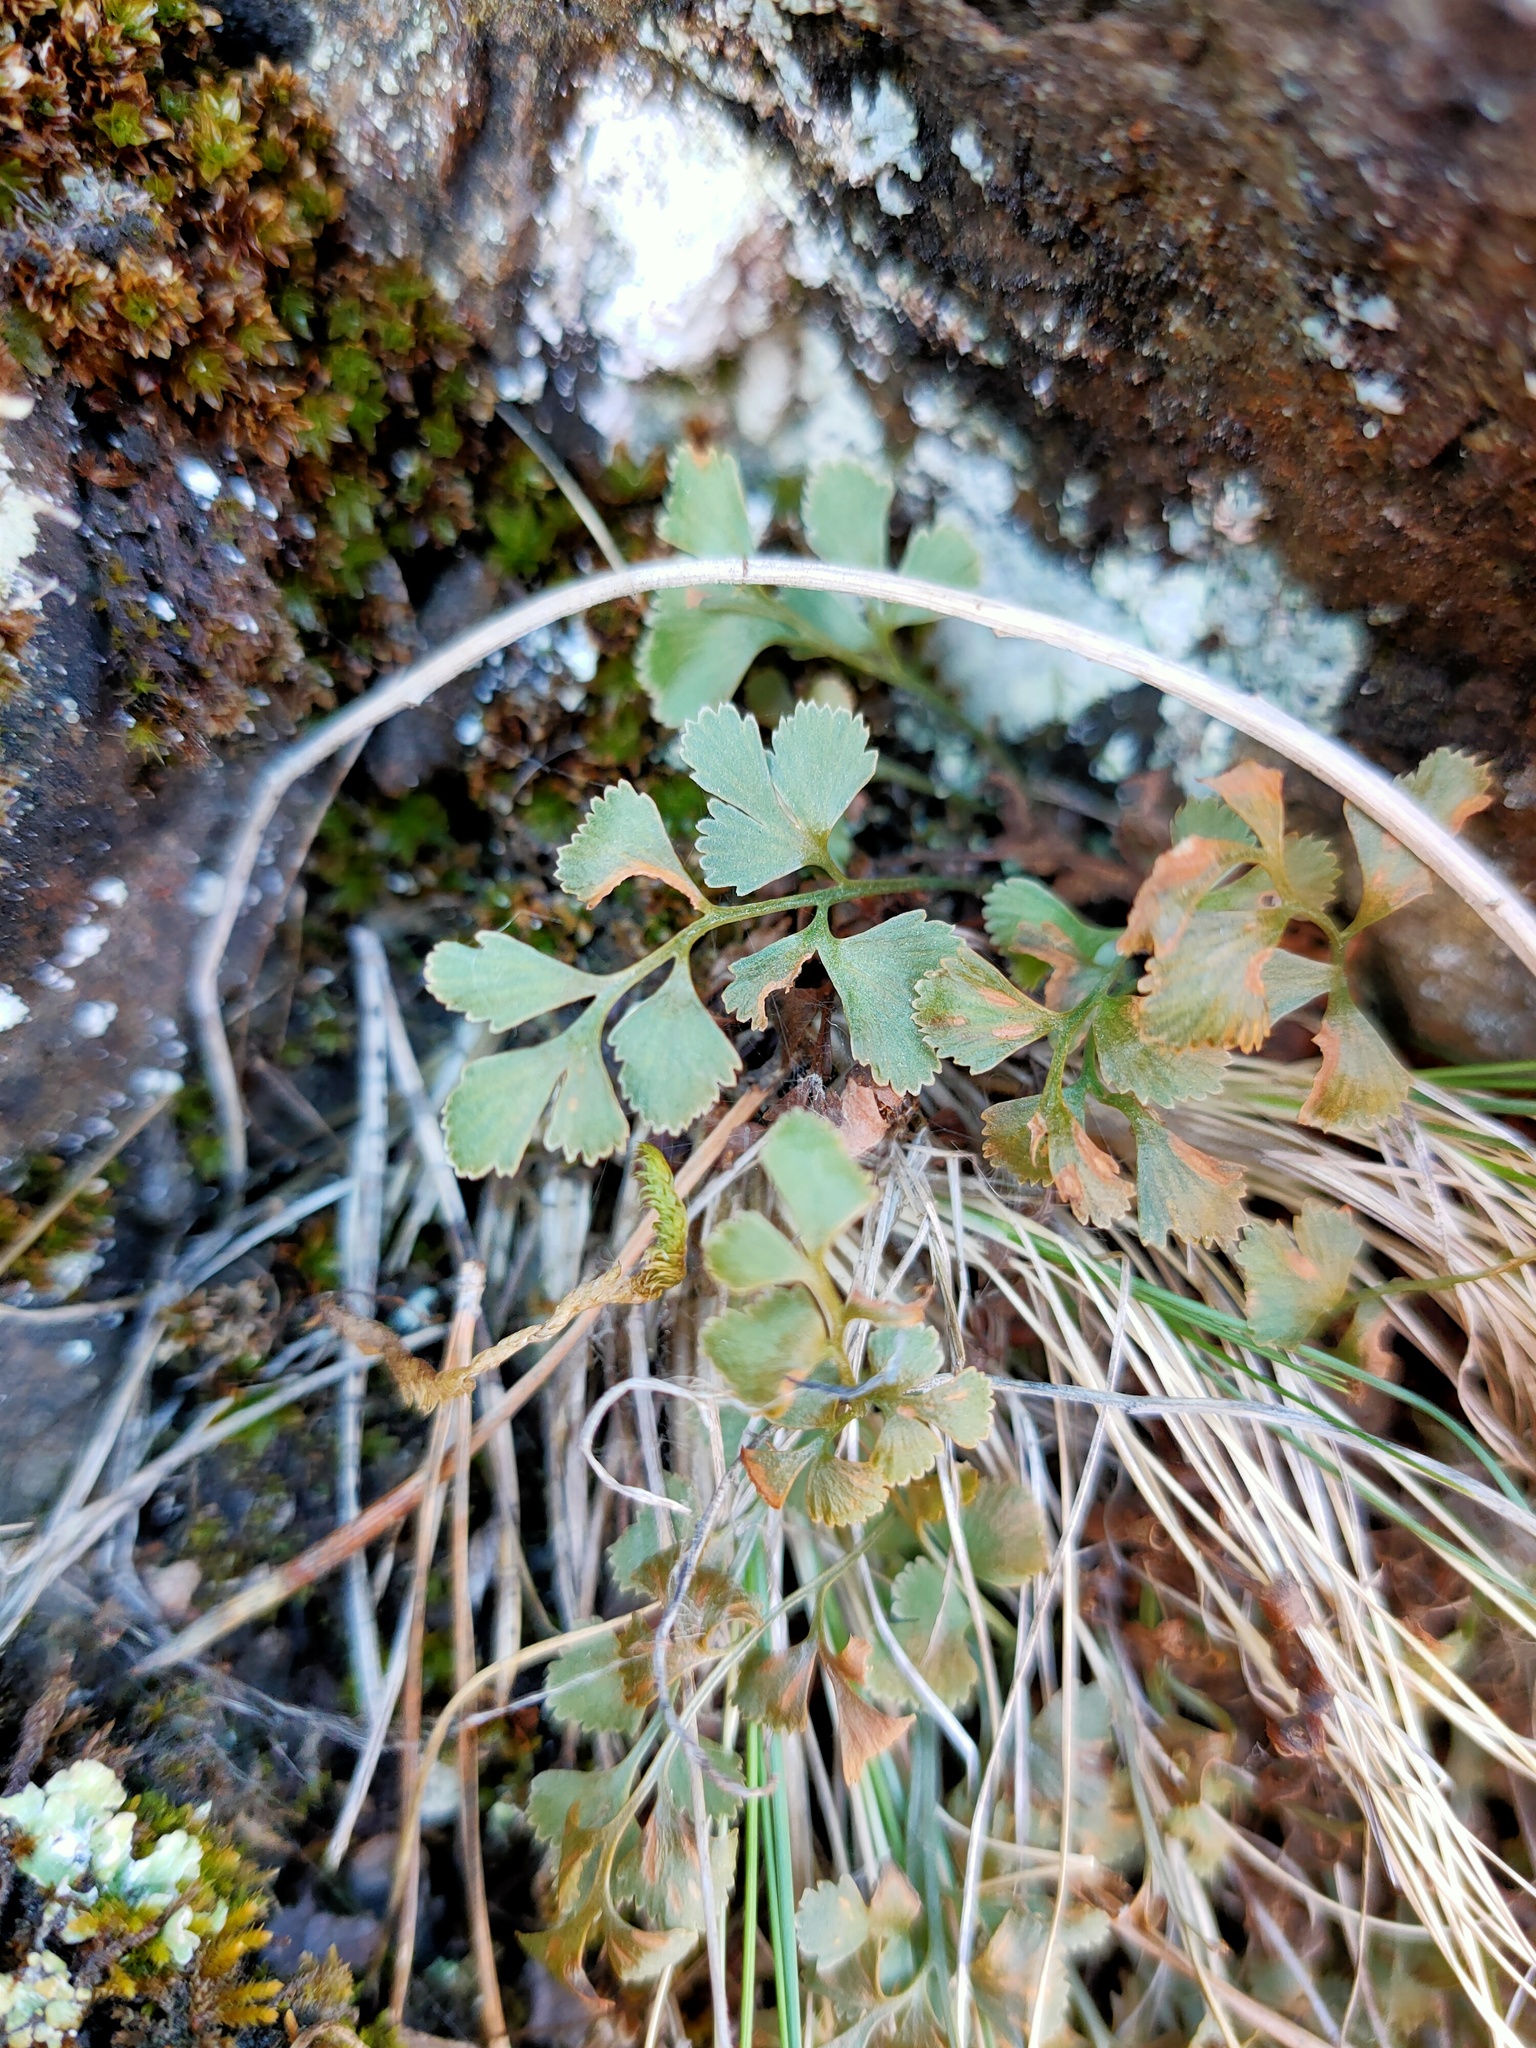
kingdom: Plantae
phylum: Tracheophyta
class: Polypodiopsida
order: Polypodiales
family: Aspleniaceae
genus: Asplenium
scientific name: Asplenium ruta-muraria
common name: Wall-rue
